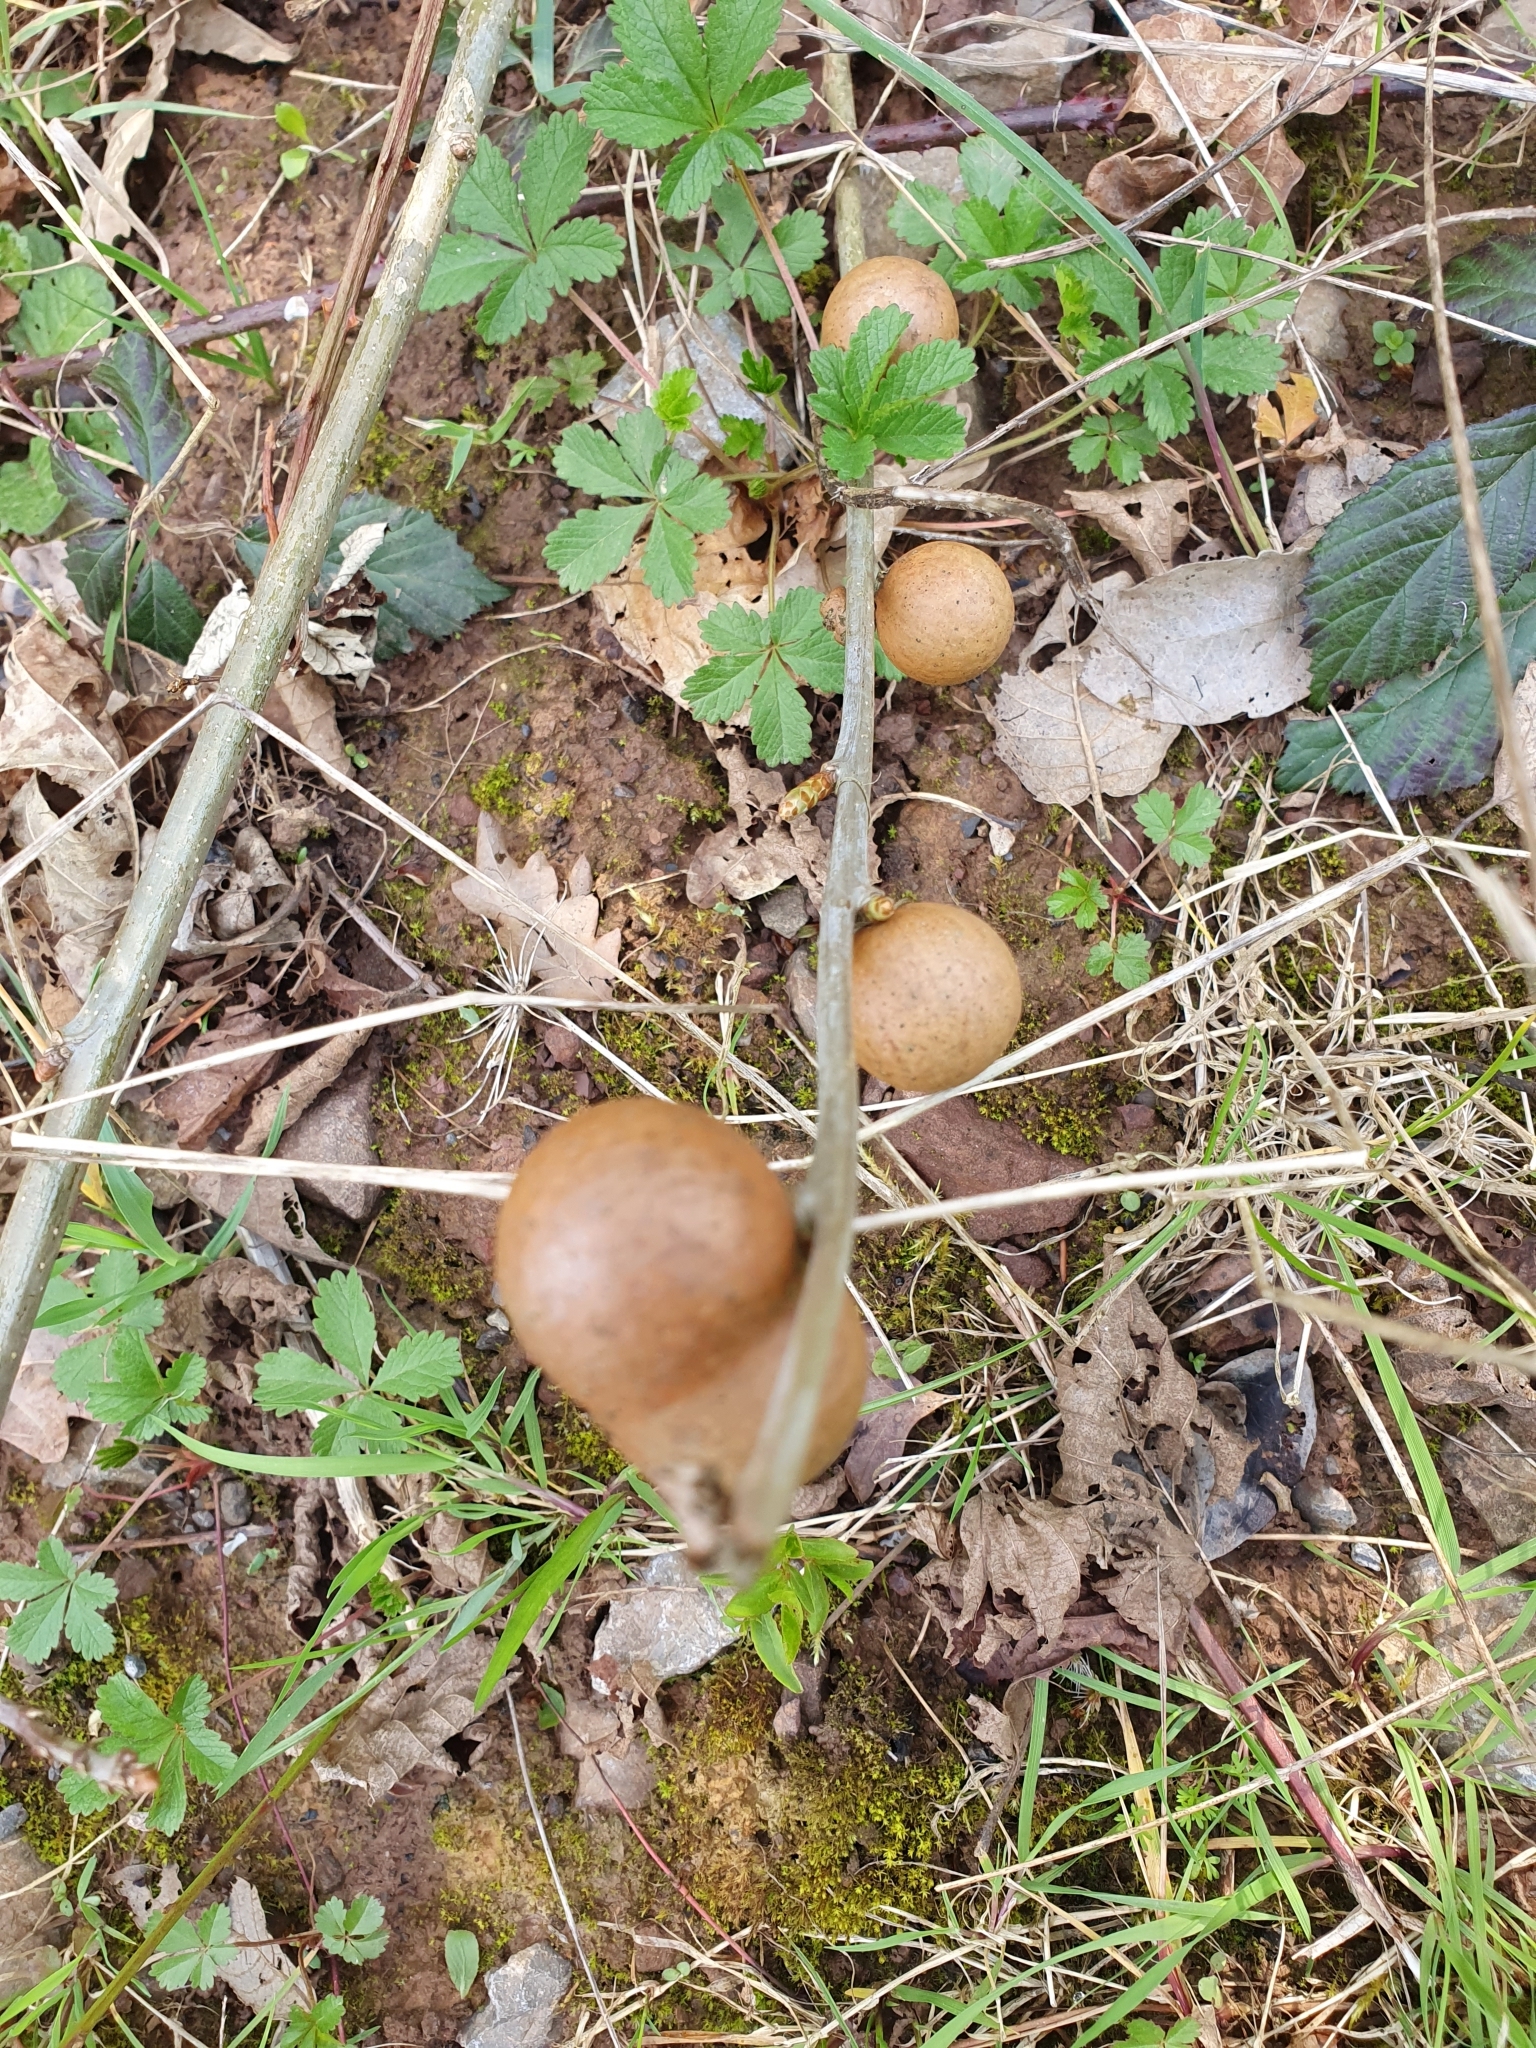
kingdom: Animalia
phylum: Arthropoda
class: Insecta
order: Hymenoptera
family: Cynipidae
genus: Andricus
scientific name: Andricus kollari
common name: Marble gall
